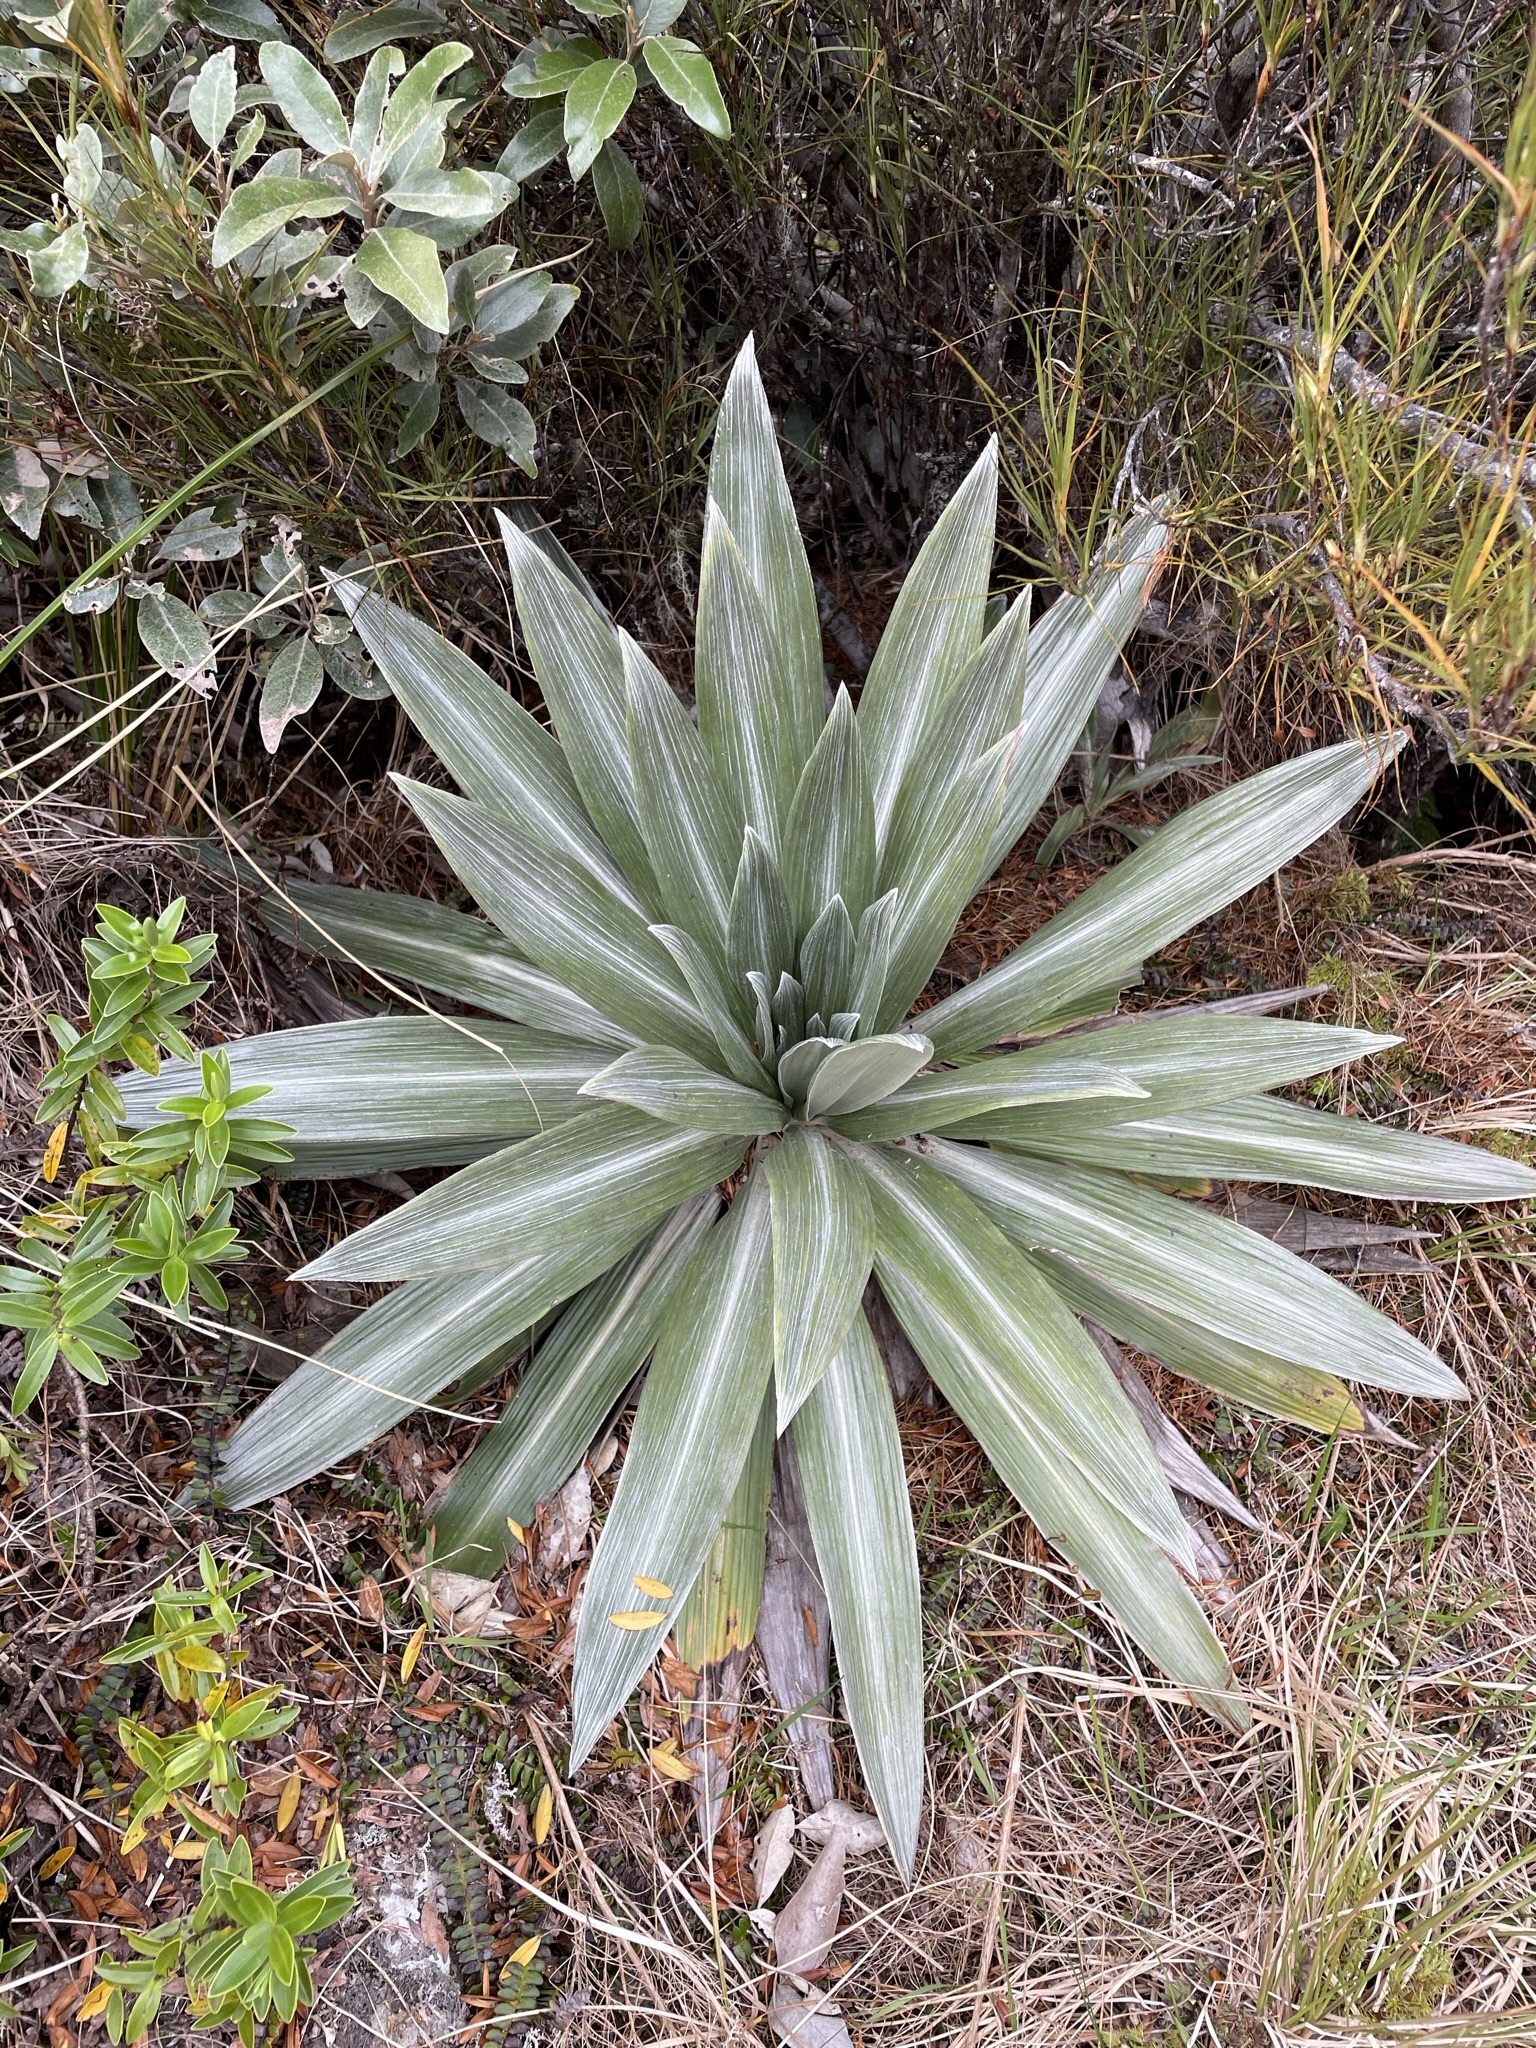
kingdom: Plantae
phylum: Tracheophyta
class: Magnoliopsida
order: Asterales
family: Asteraceae
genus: Celmisia
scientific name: Celmisia semicordata
